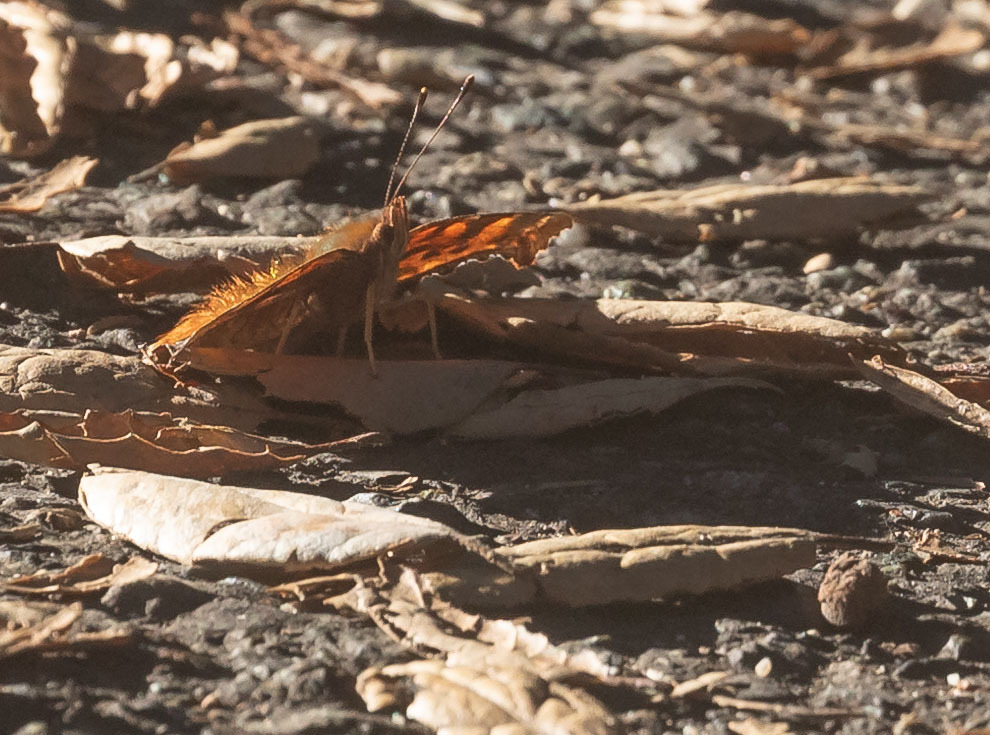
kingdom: Animalia
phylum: Arthropoda
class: Insecta
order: Lepidoptera
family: Nymphalidae
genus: Polygonia
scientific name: Polygonia satyrus
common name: Satyr angle wing
